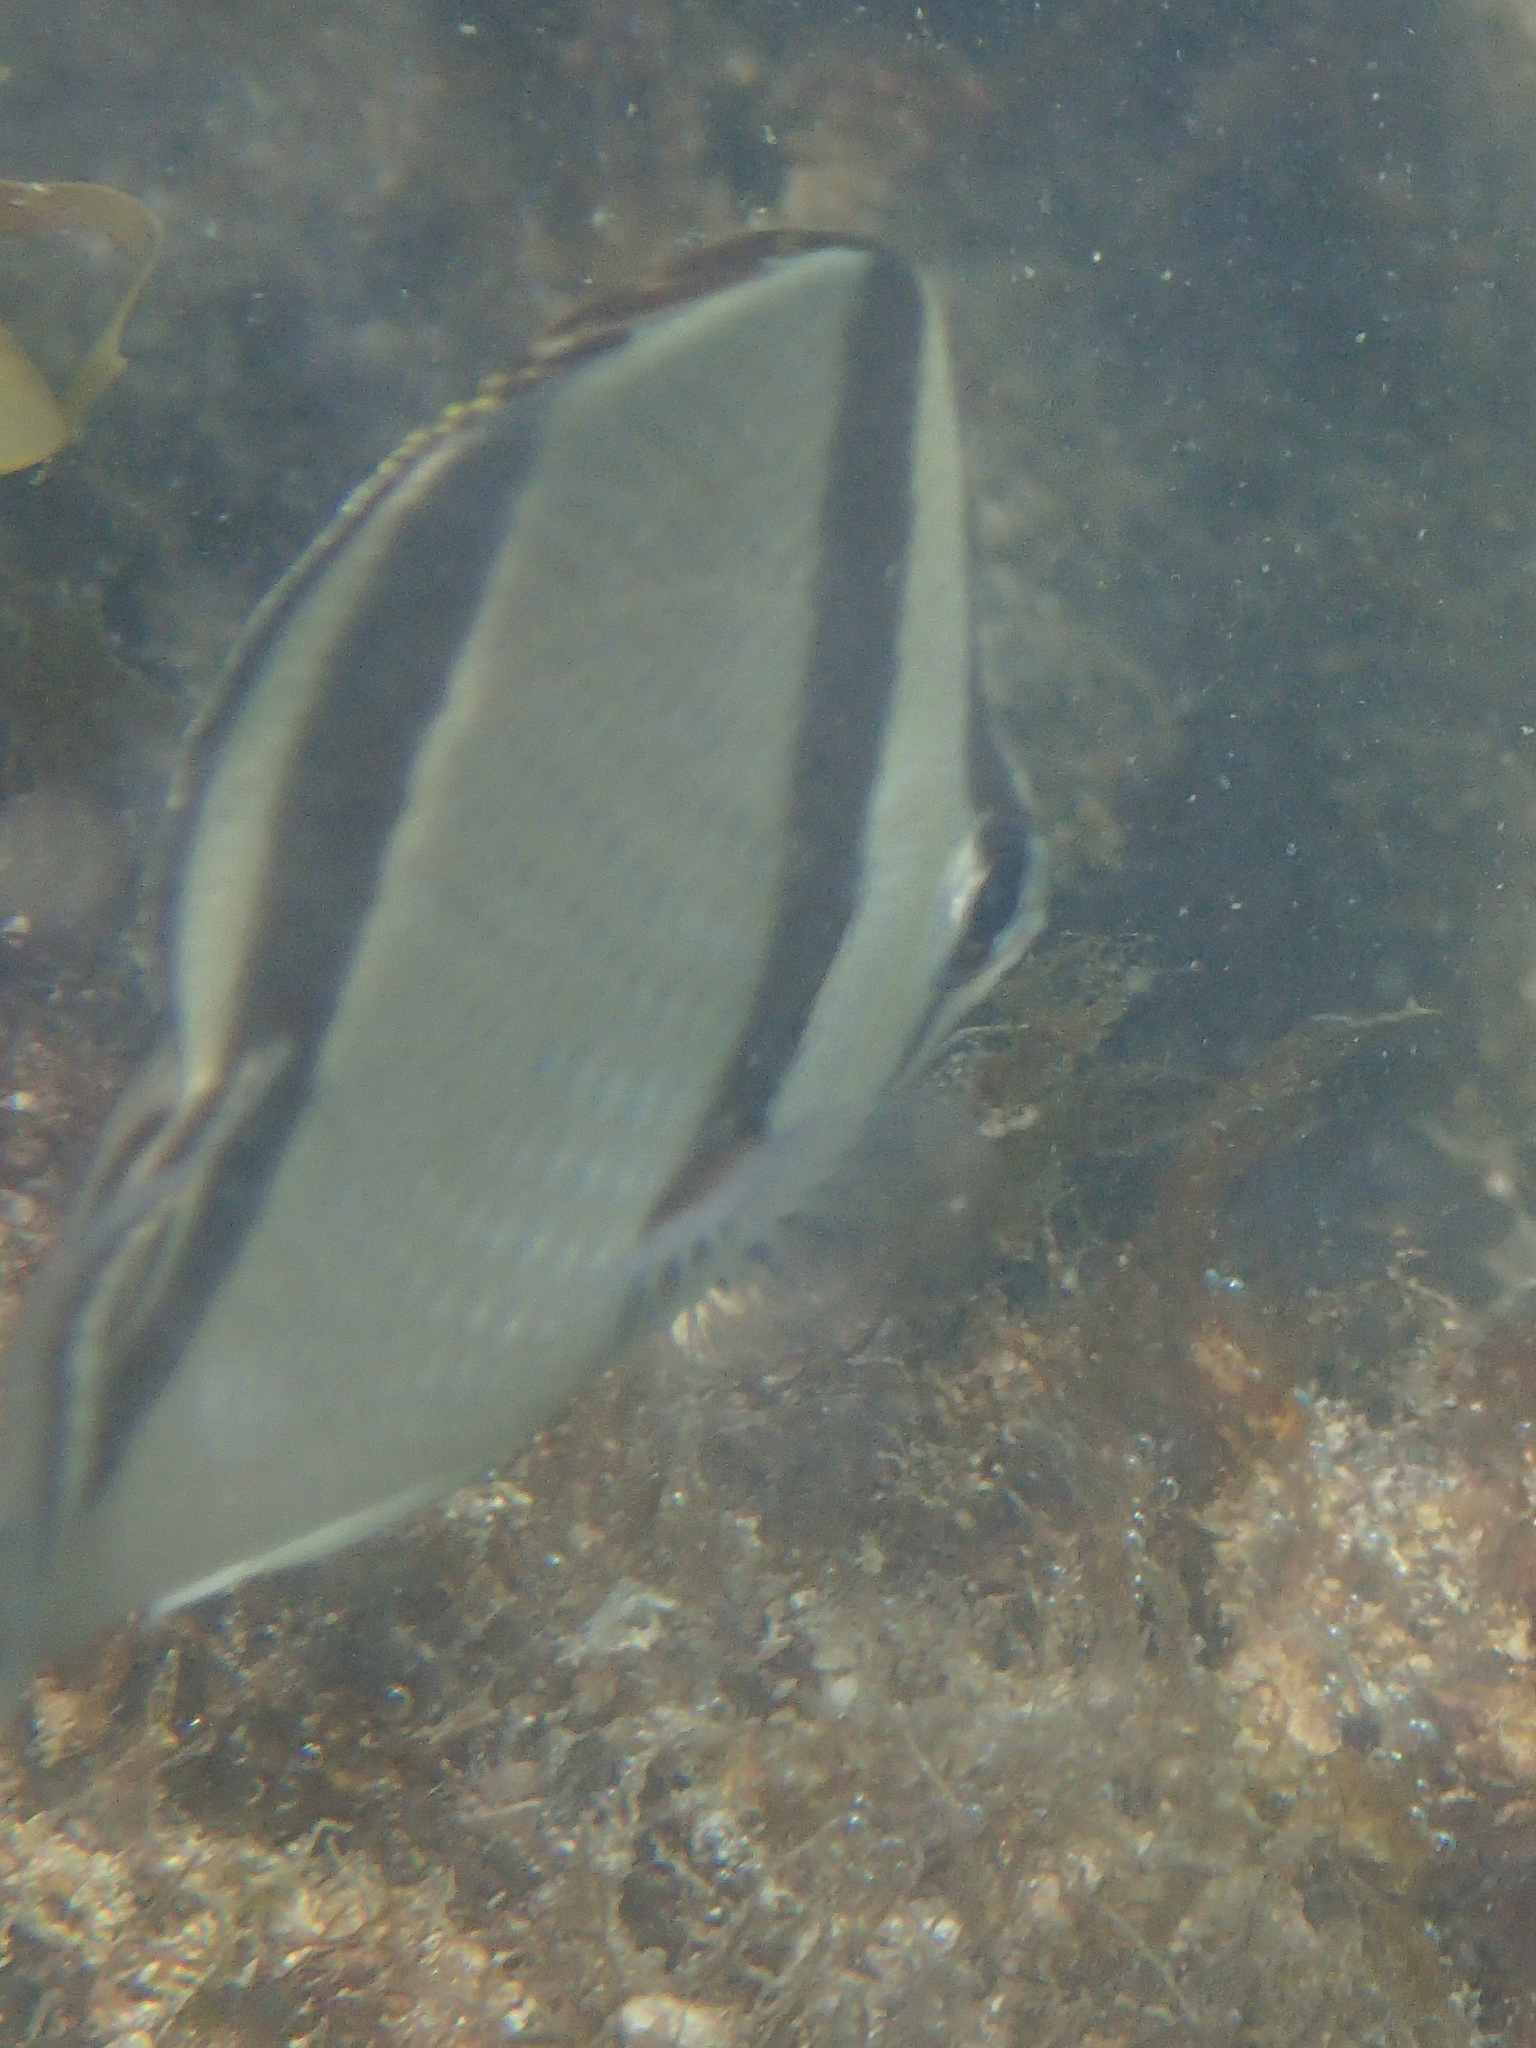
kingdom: Animalia
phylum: Chordata
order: Perciformes
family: Chaetodontidae
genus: Chaetodon
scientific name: Chaetodon humeralis
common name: Threebanded butterflyfish
